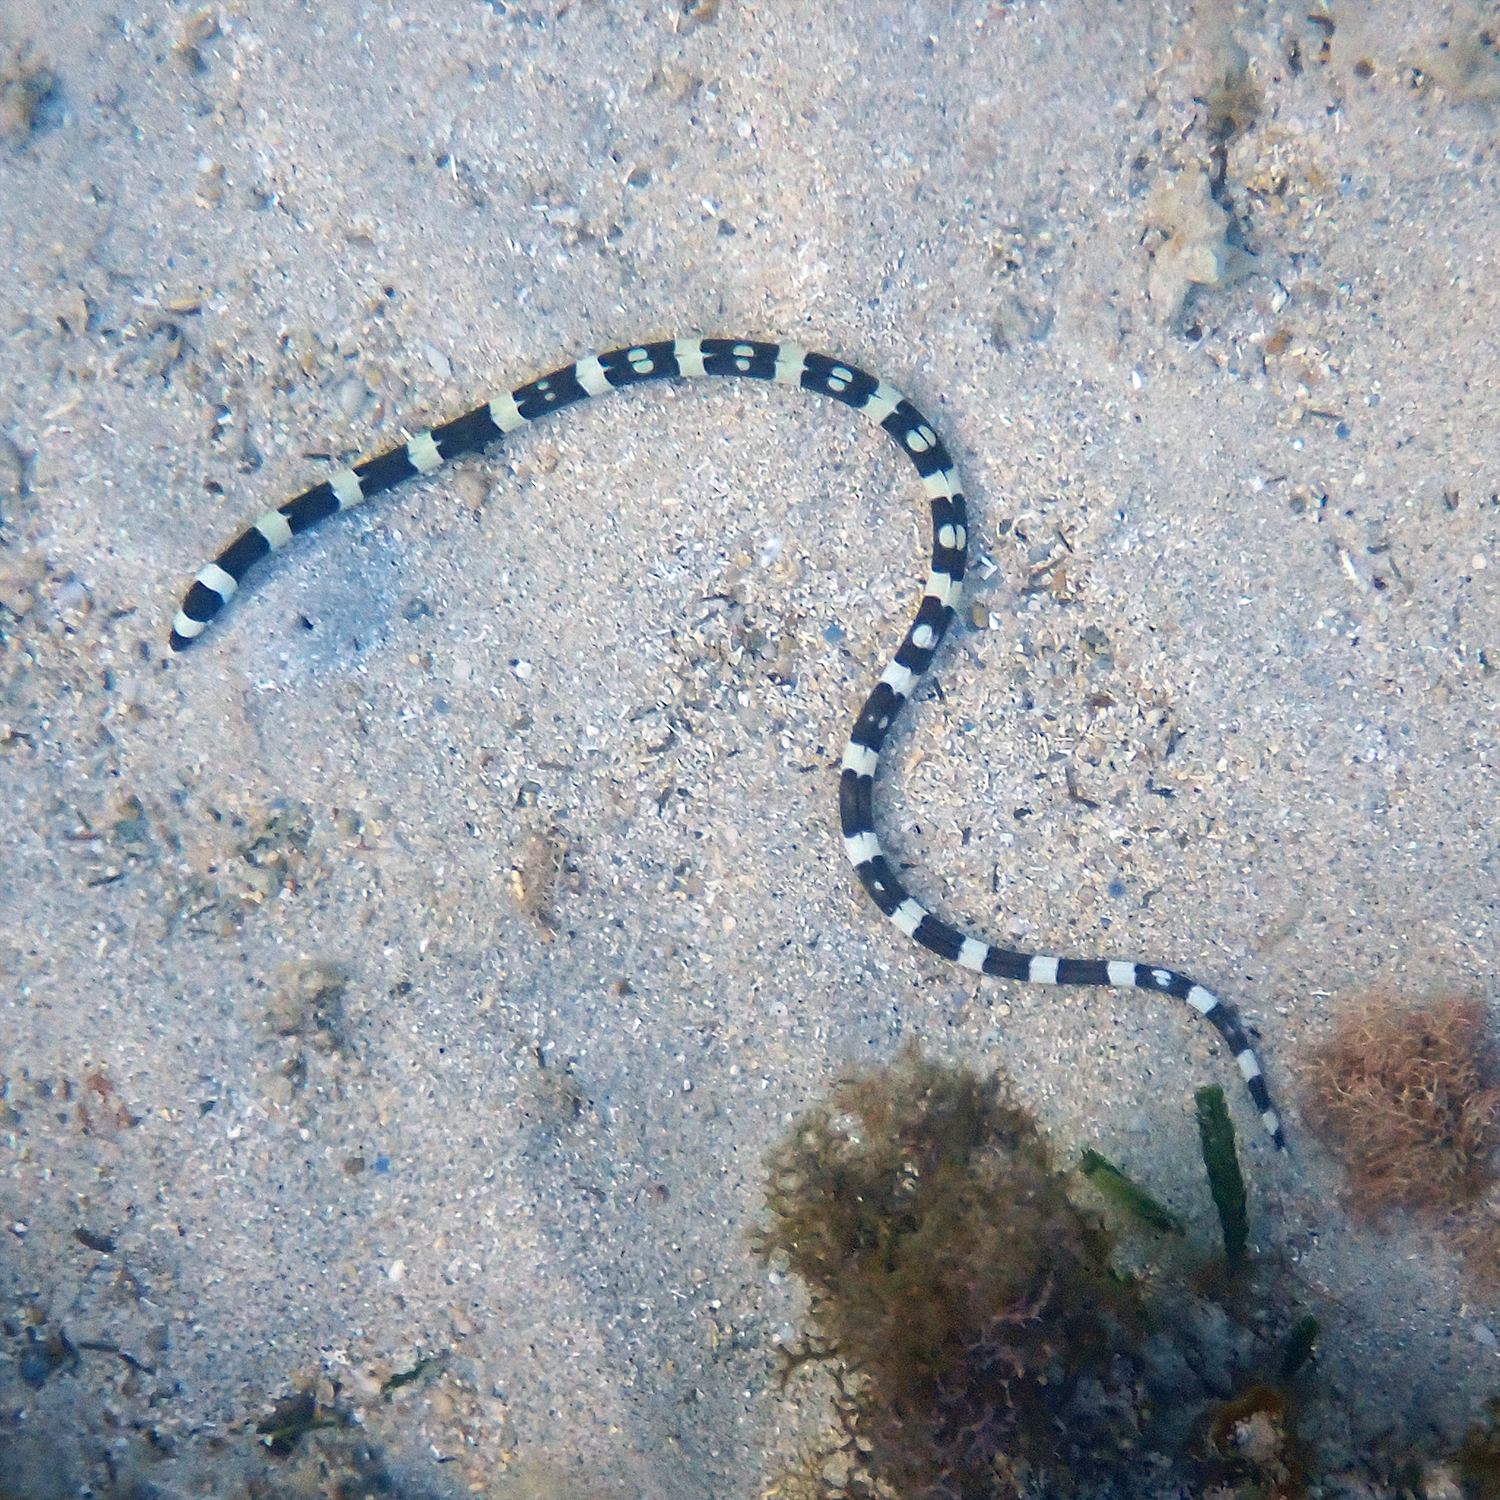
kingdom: Animalia
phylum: Chordata
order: Anguilliformes
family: Ophichthidae
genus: Leiuranus
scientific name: Leiuranus versicolor
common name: Convict snake eel
